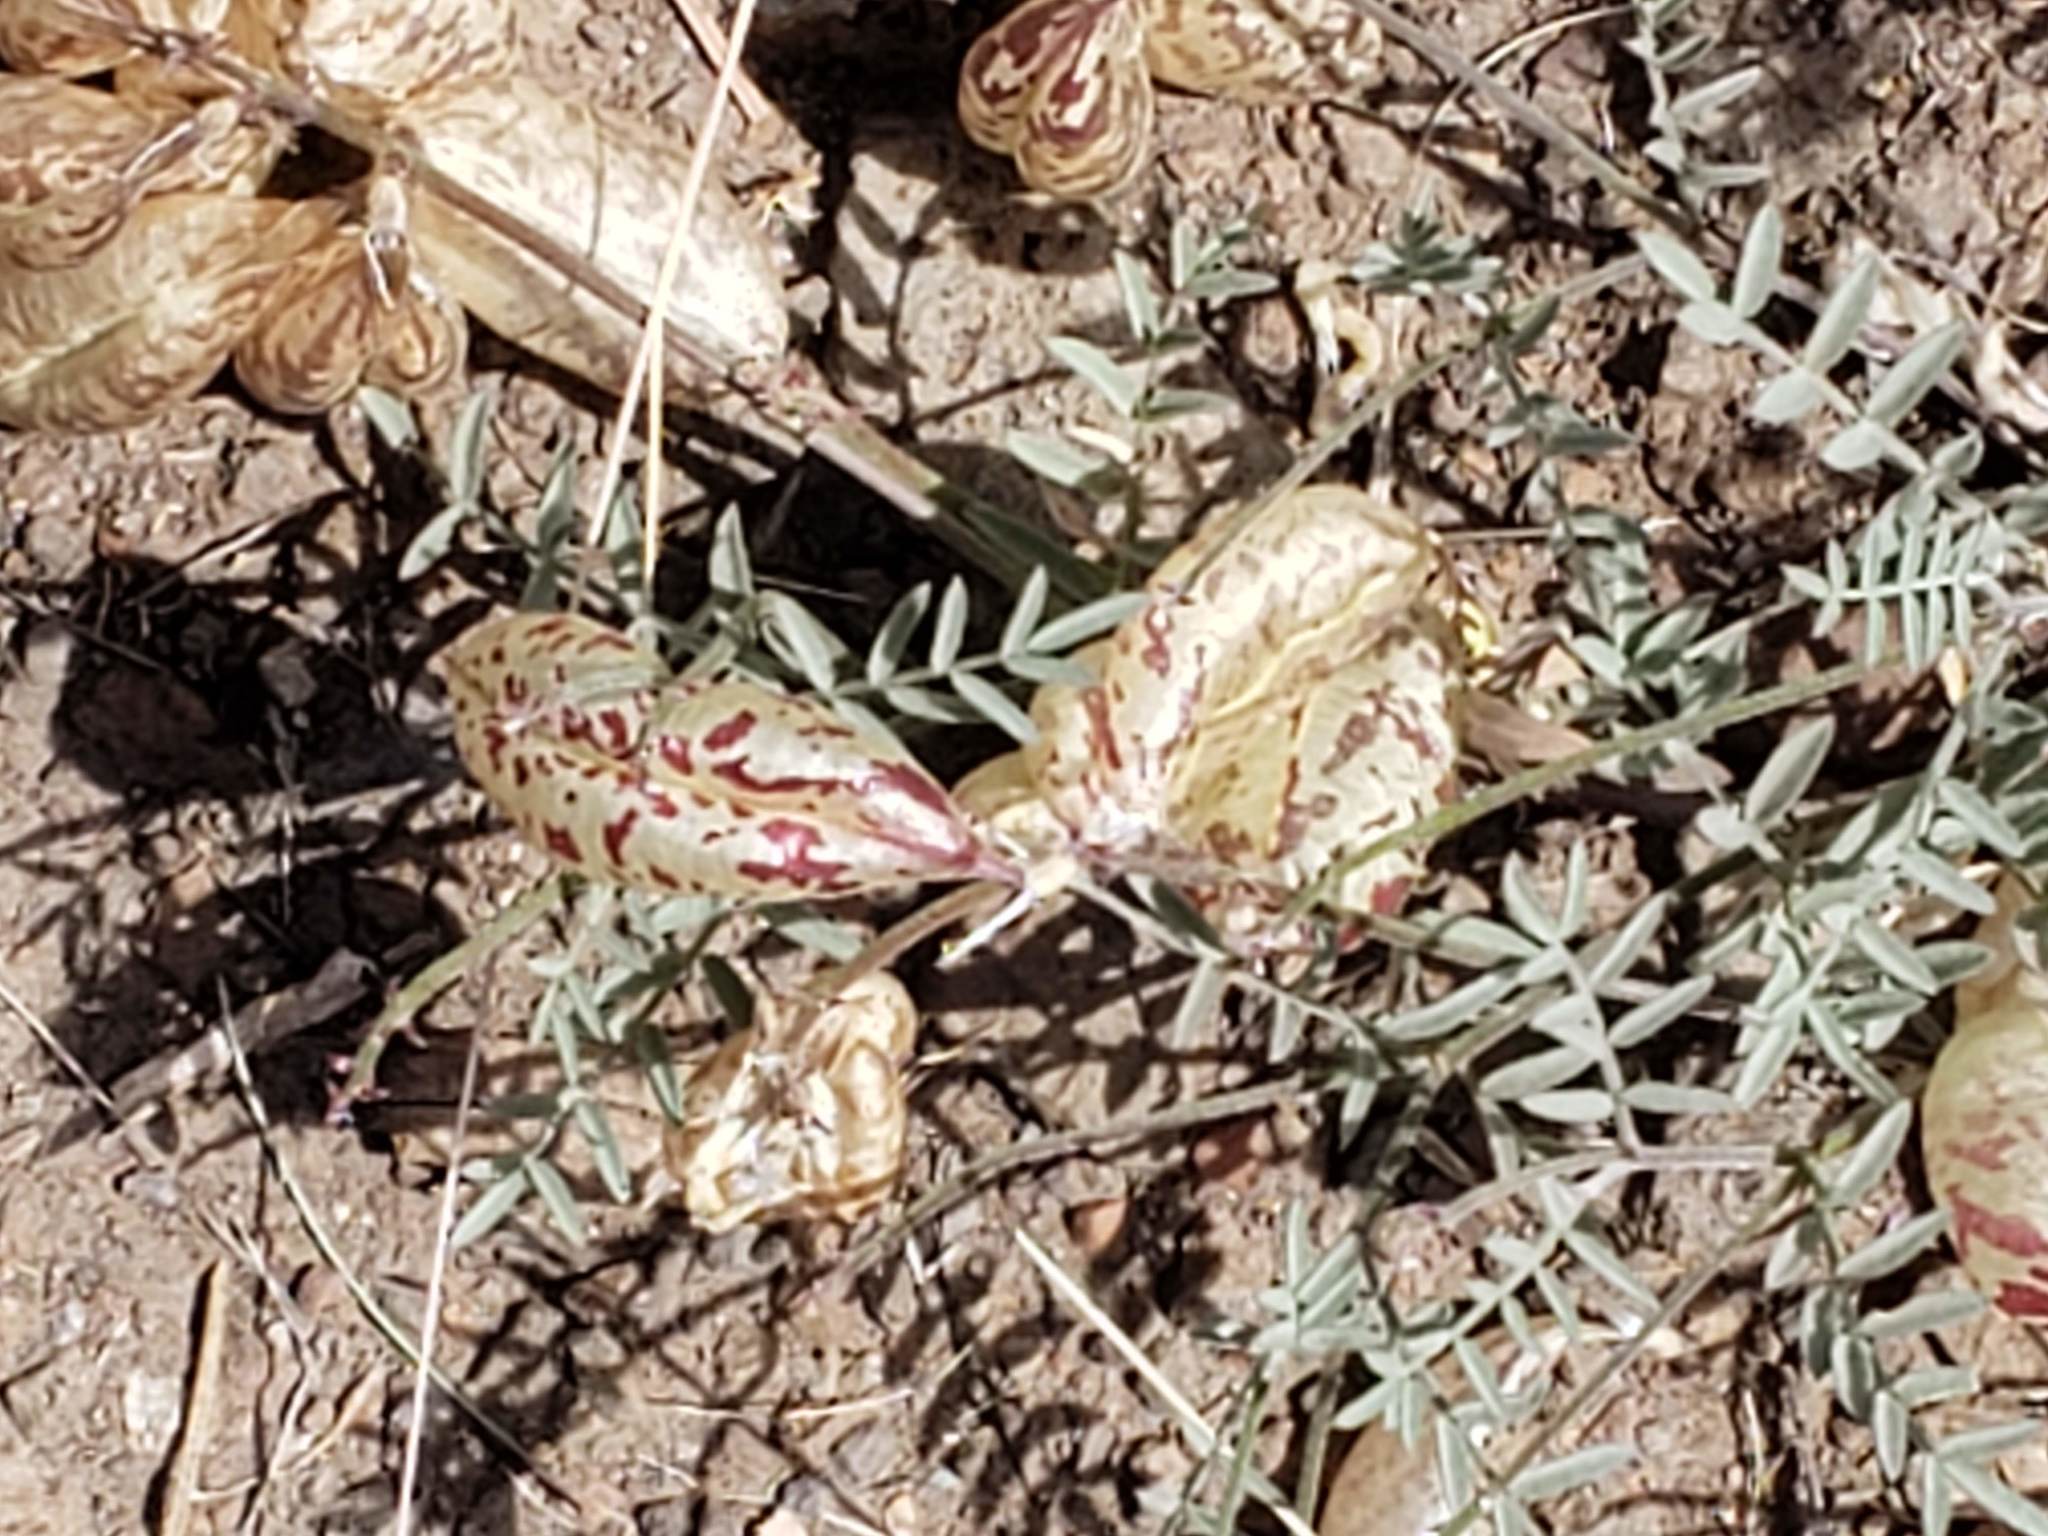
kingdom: Plantae
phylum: Tracheophyta
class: Magnoliopsida
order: Fabales
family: Fabaceae
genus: Astragalus
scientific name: Astragalus whitneyi
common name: Balloonpod milkvetch
